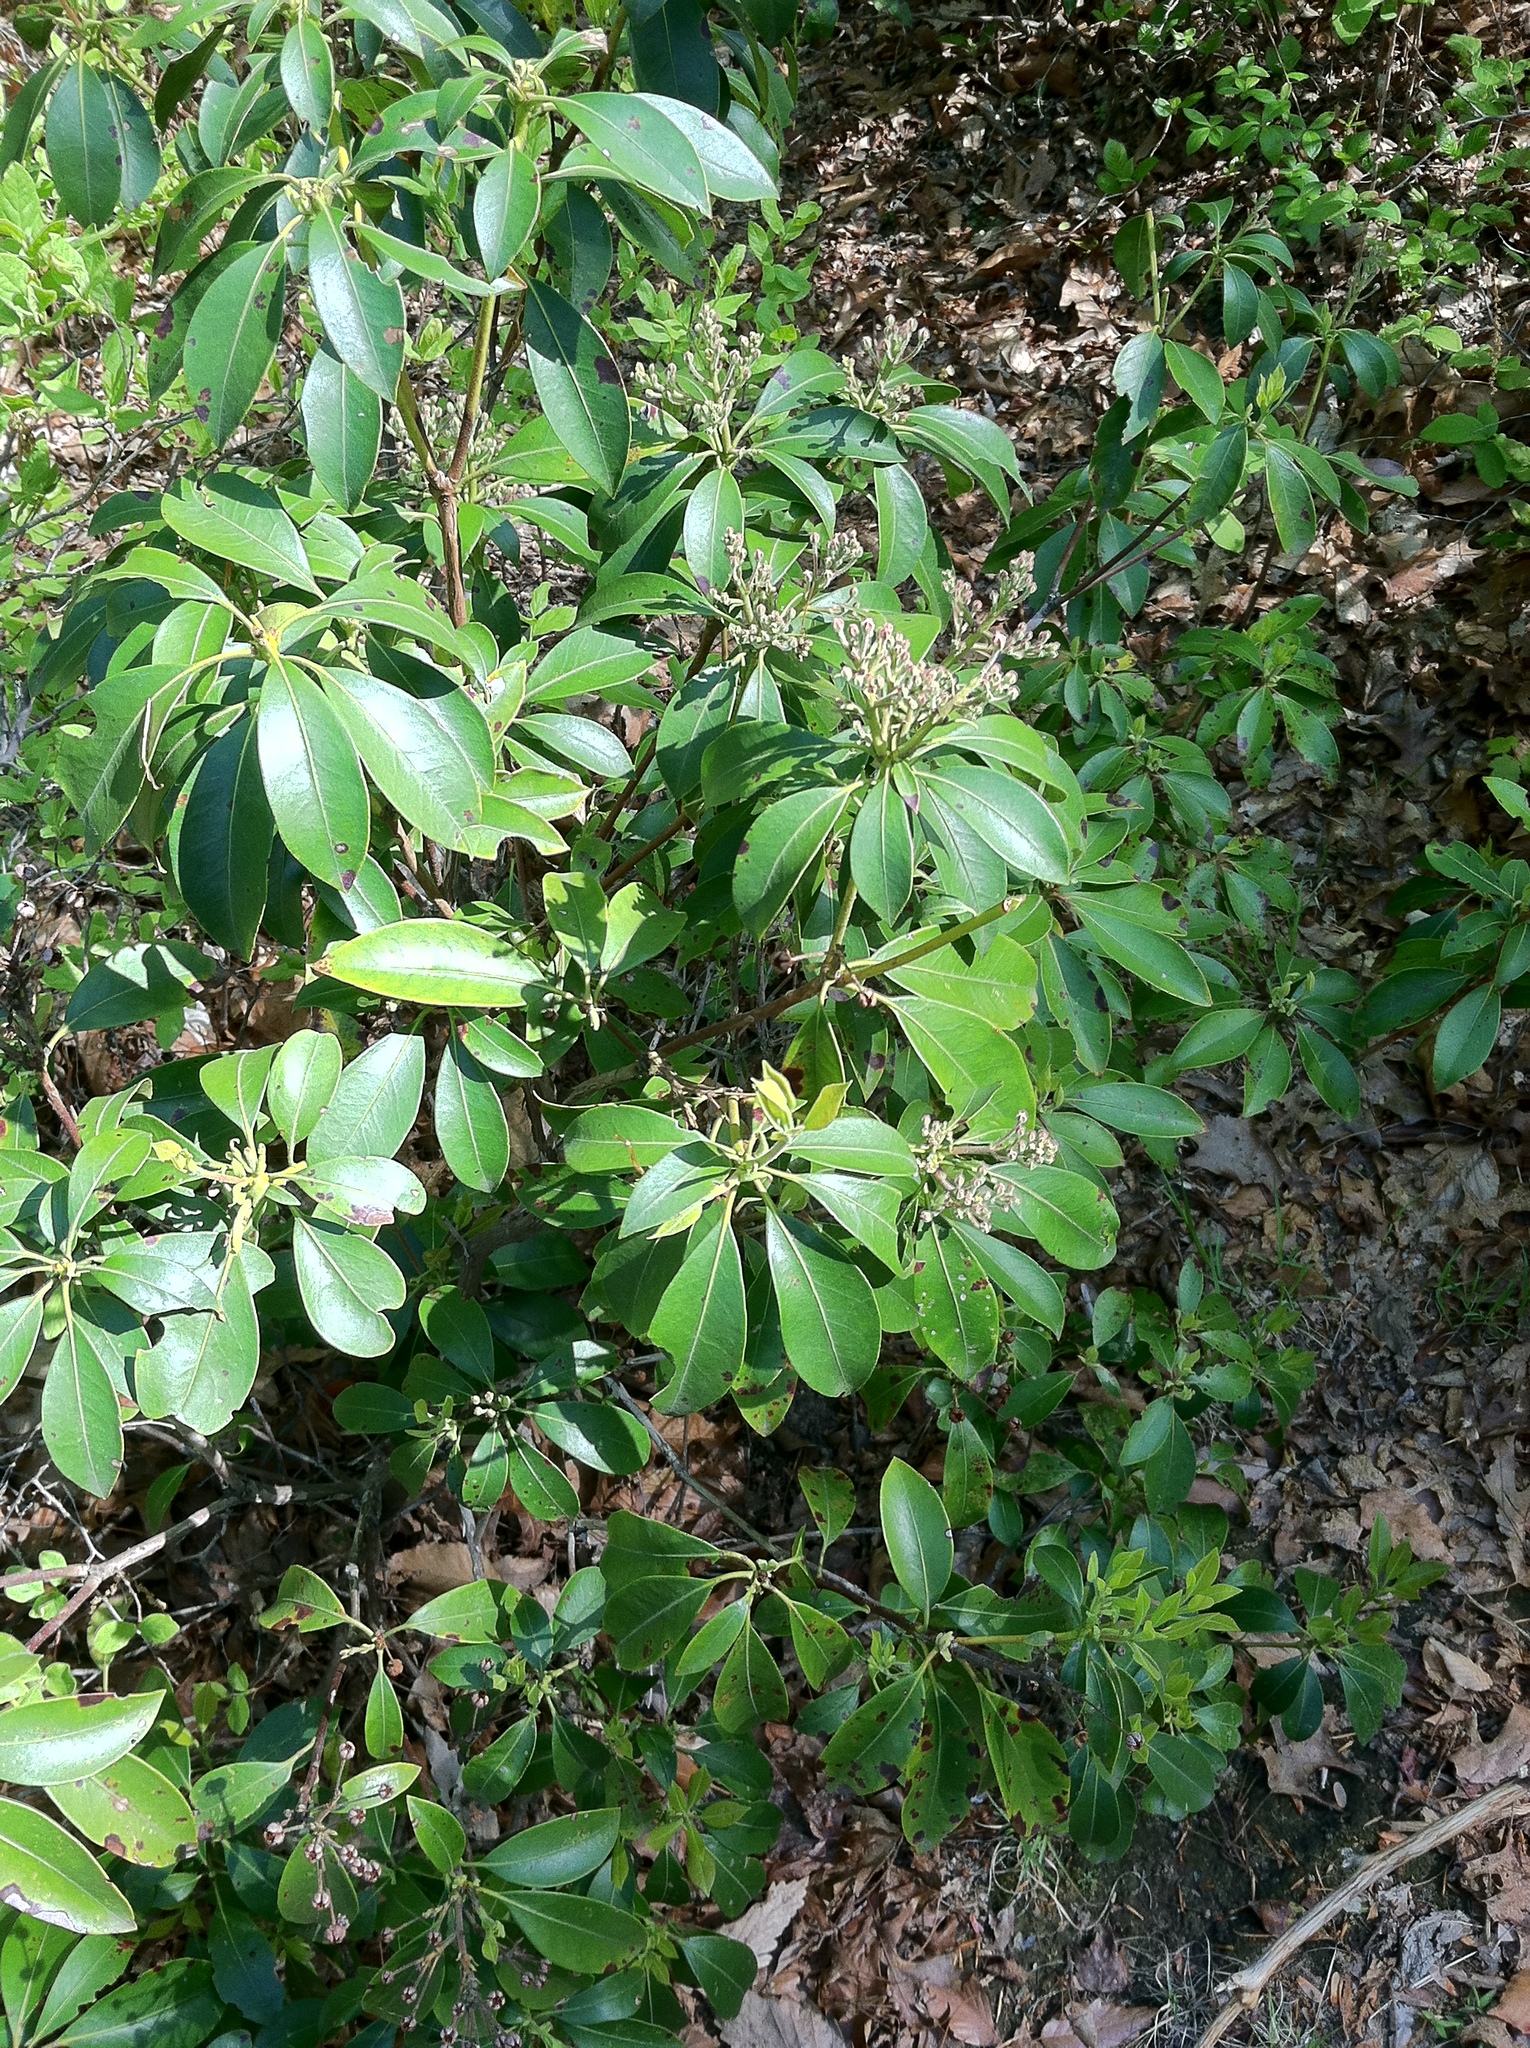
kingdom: Plantae
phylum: Tracheophyta
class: Magnoliopsida
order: Ericales
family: Ericaceae
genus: Kalmia
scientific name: Kalmia latifolia
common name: Mountain-laurel
